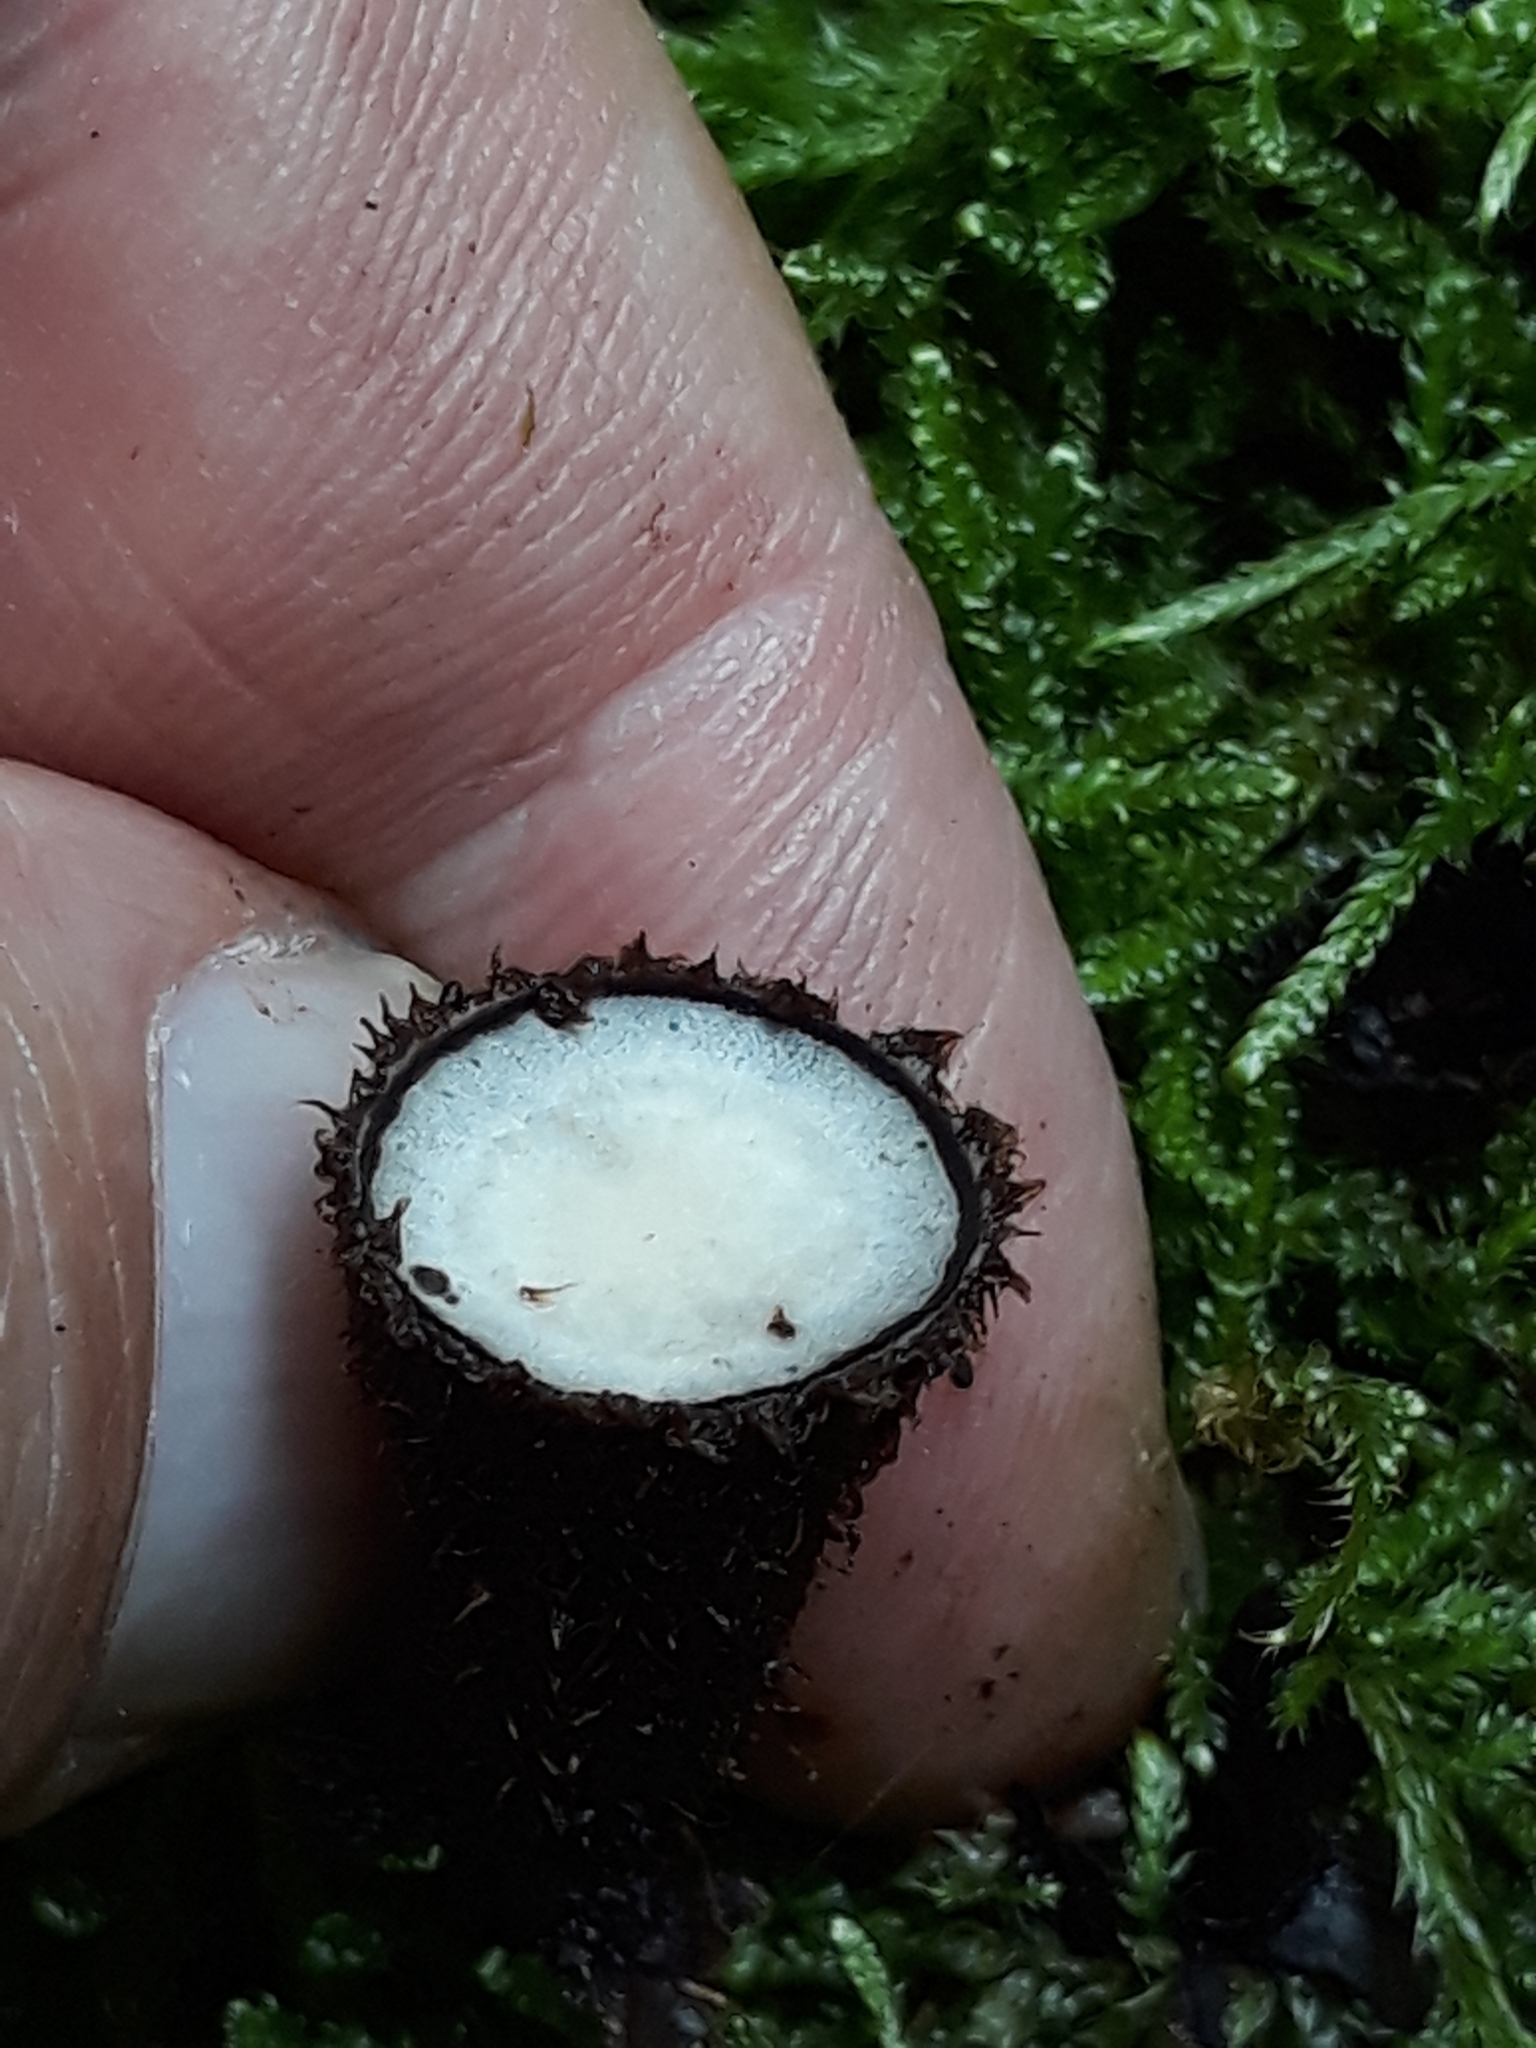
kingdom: Fungi
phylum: Basidiomycota
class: Agaricomycetes
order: Agaricales
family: Agaricaceae
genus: Cyathus
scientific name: Cyathus striatus
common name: Fluted bird's nest
